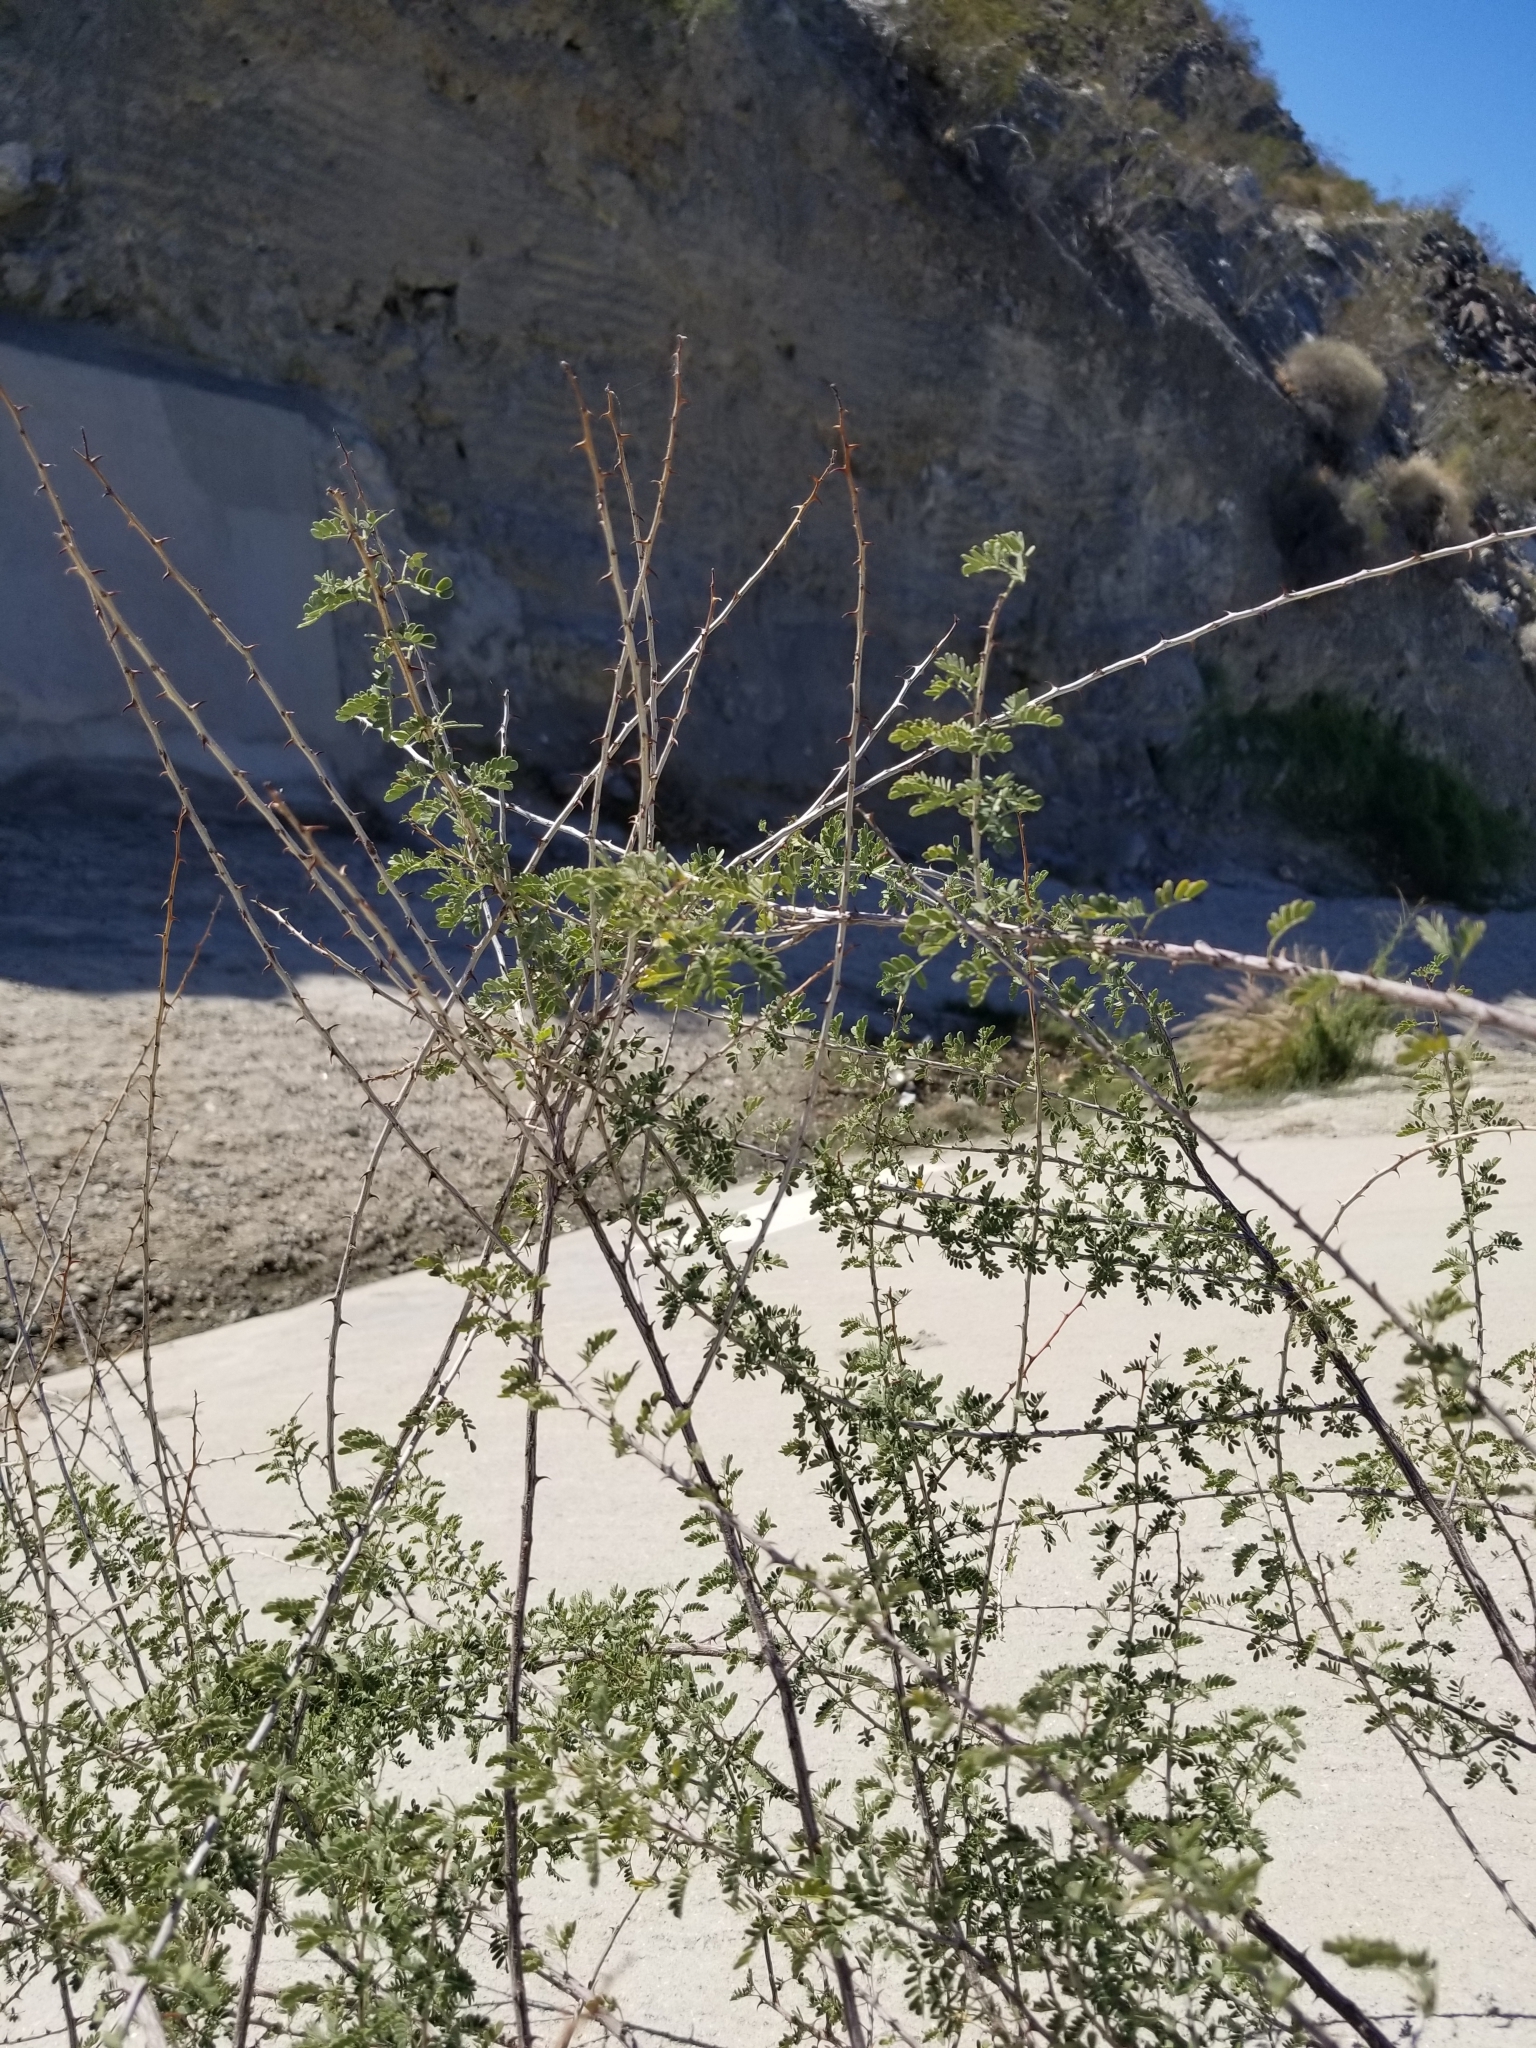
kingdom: Plantae
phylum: Tracheophyta
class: Magnoliopsida
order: Fabales
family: Fabaceae
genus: Senegalia
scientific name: Senegalia greggii
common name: Texas-mimosa
